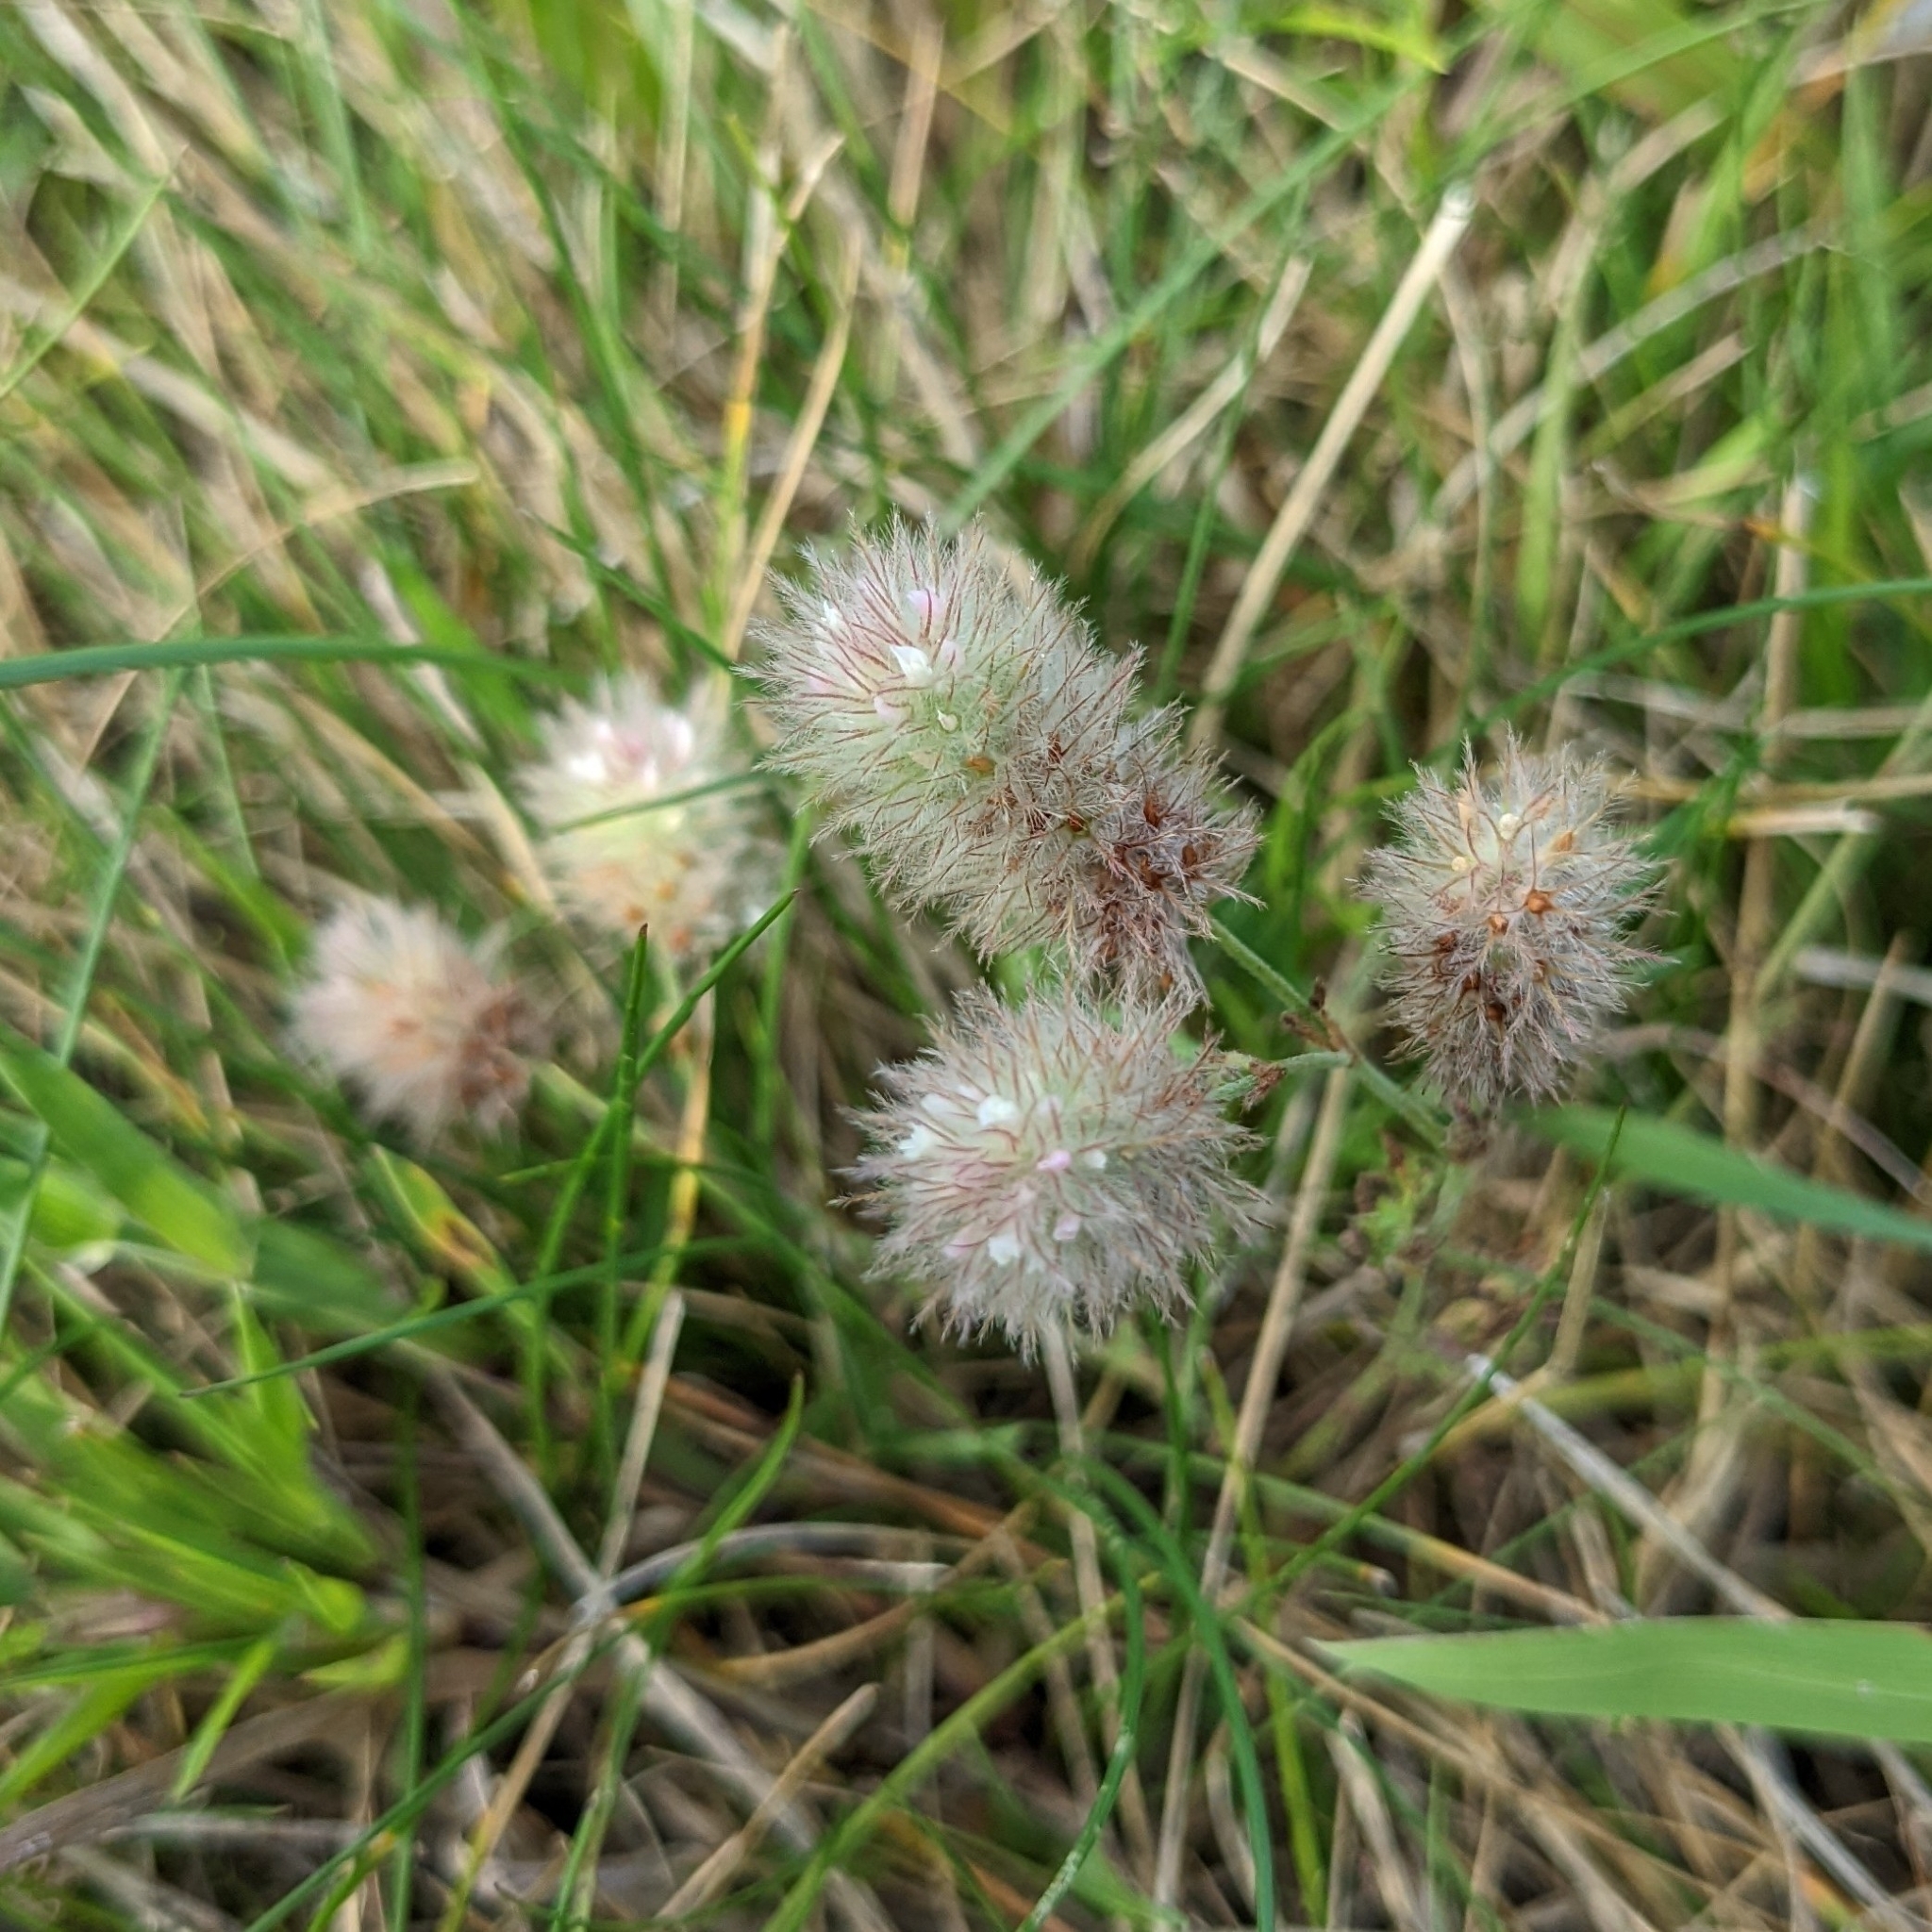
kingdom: Plantae
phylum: Tracheophyta
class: Magnoliopsida
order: Fabales
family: Fabaceae
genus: Trifolium
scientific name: Trifolium arvense
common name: Hare's-foot clover
